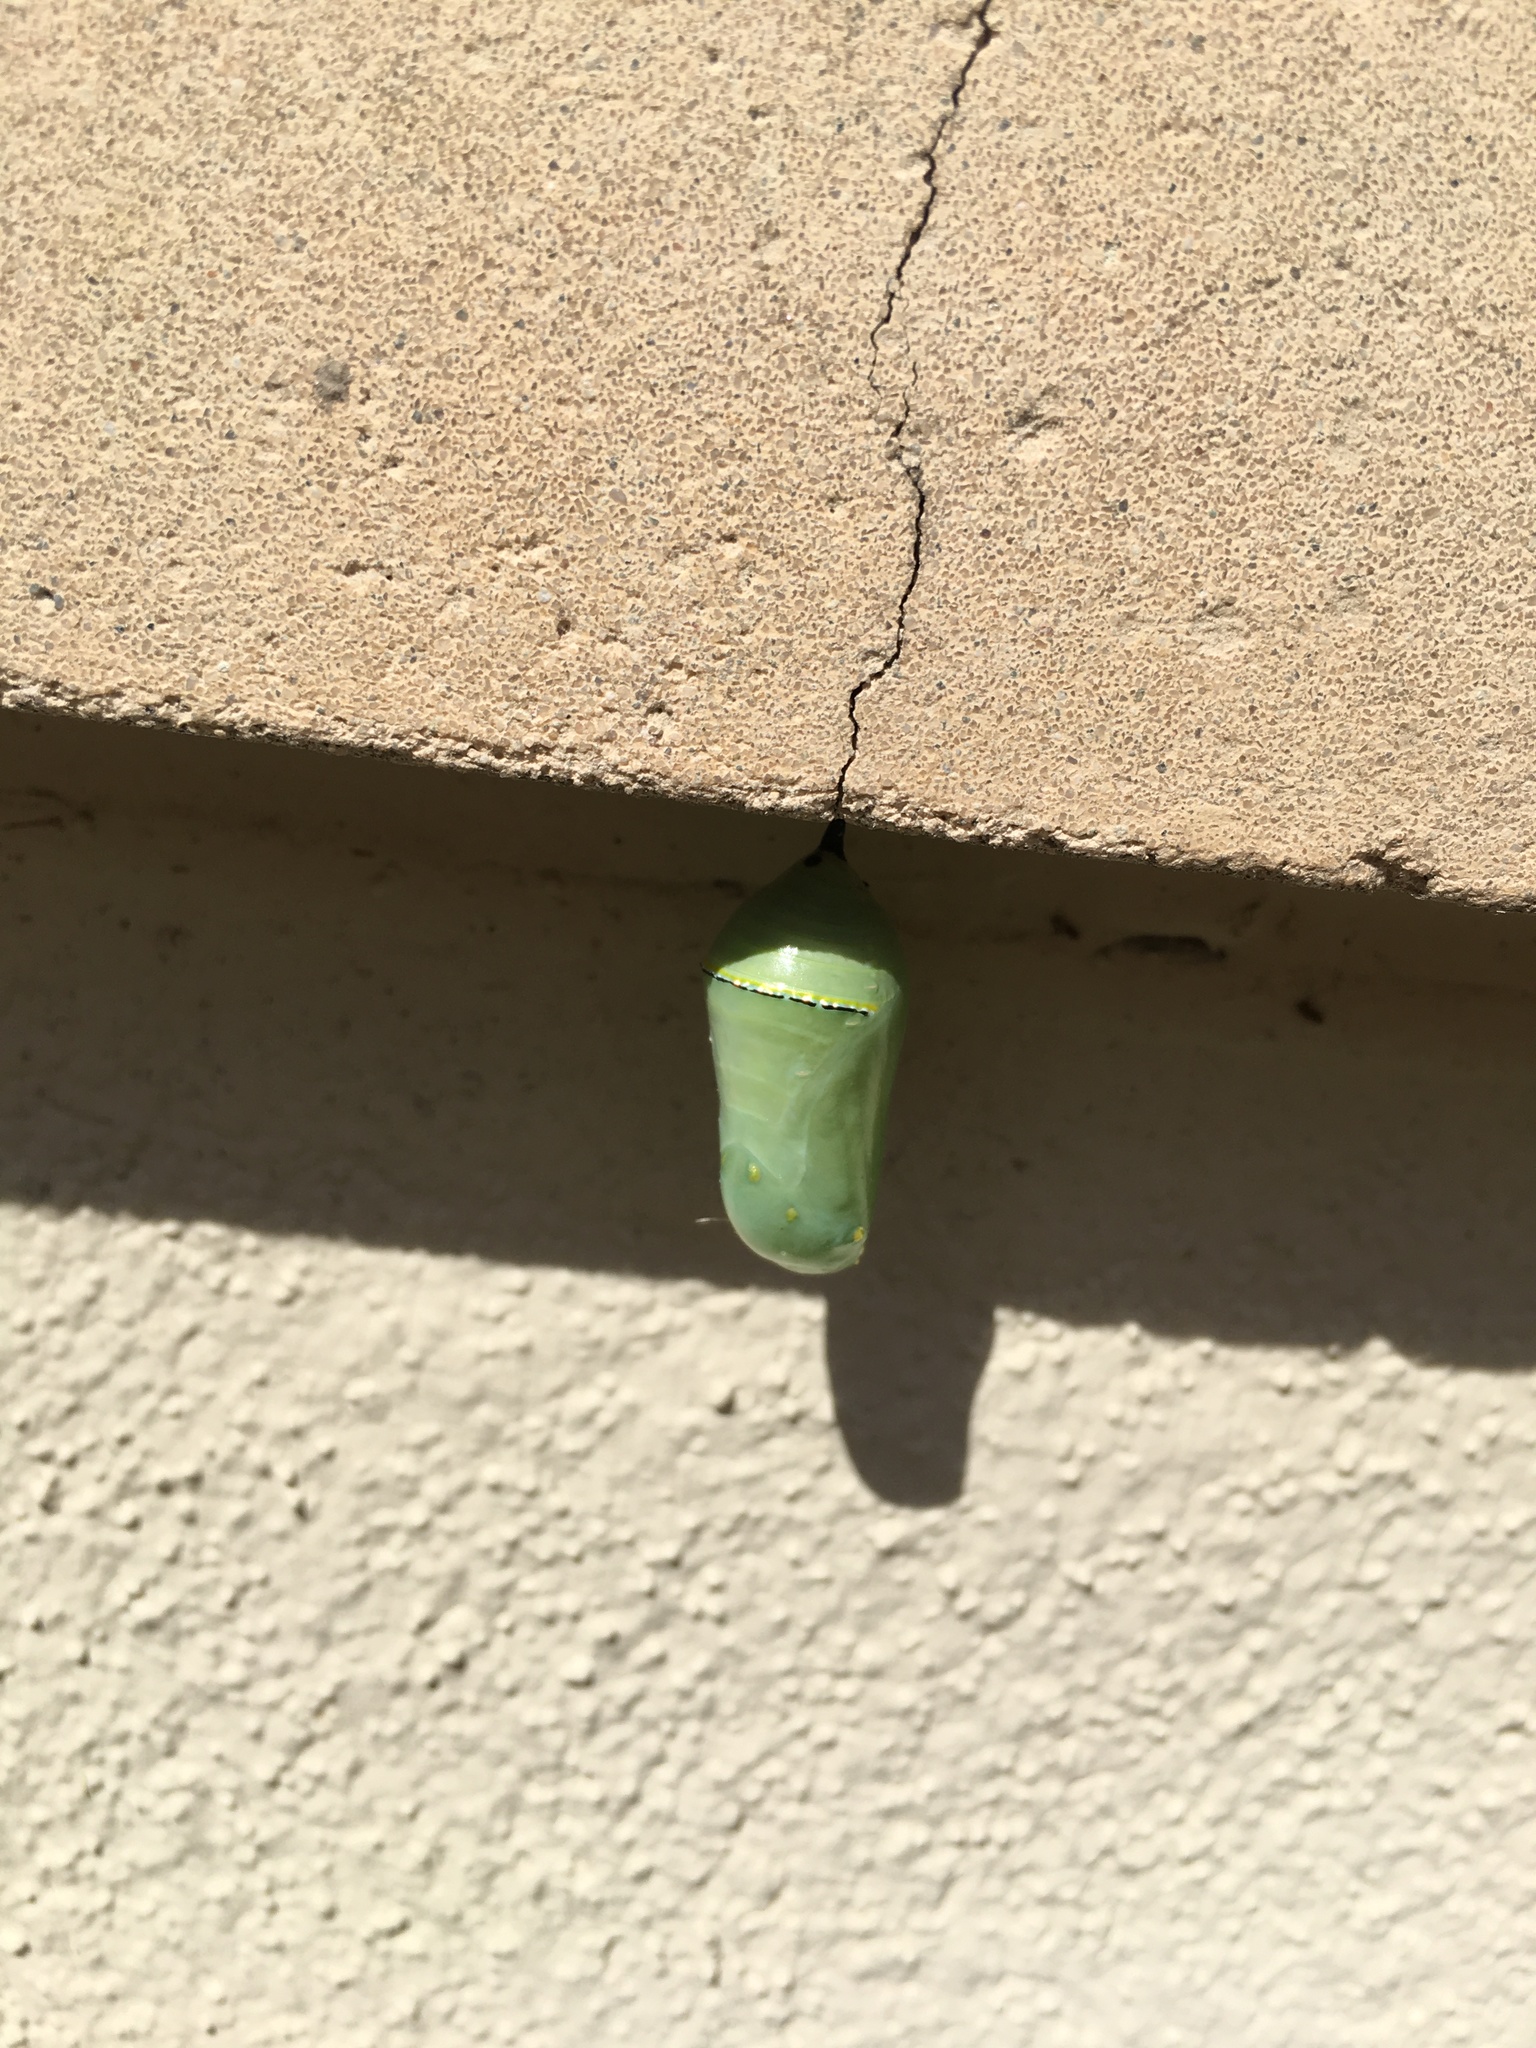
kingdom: Animalia
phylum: Arthropoda
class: Insecta
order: Lepidoptera
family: Nymphalidae
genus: Danaus
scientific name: Danaus plexippus
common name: Monarch
